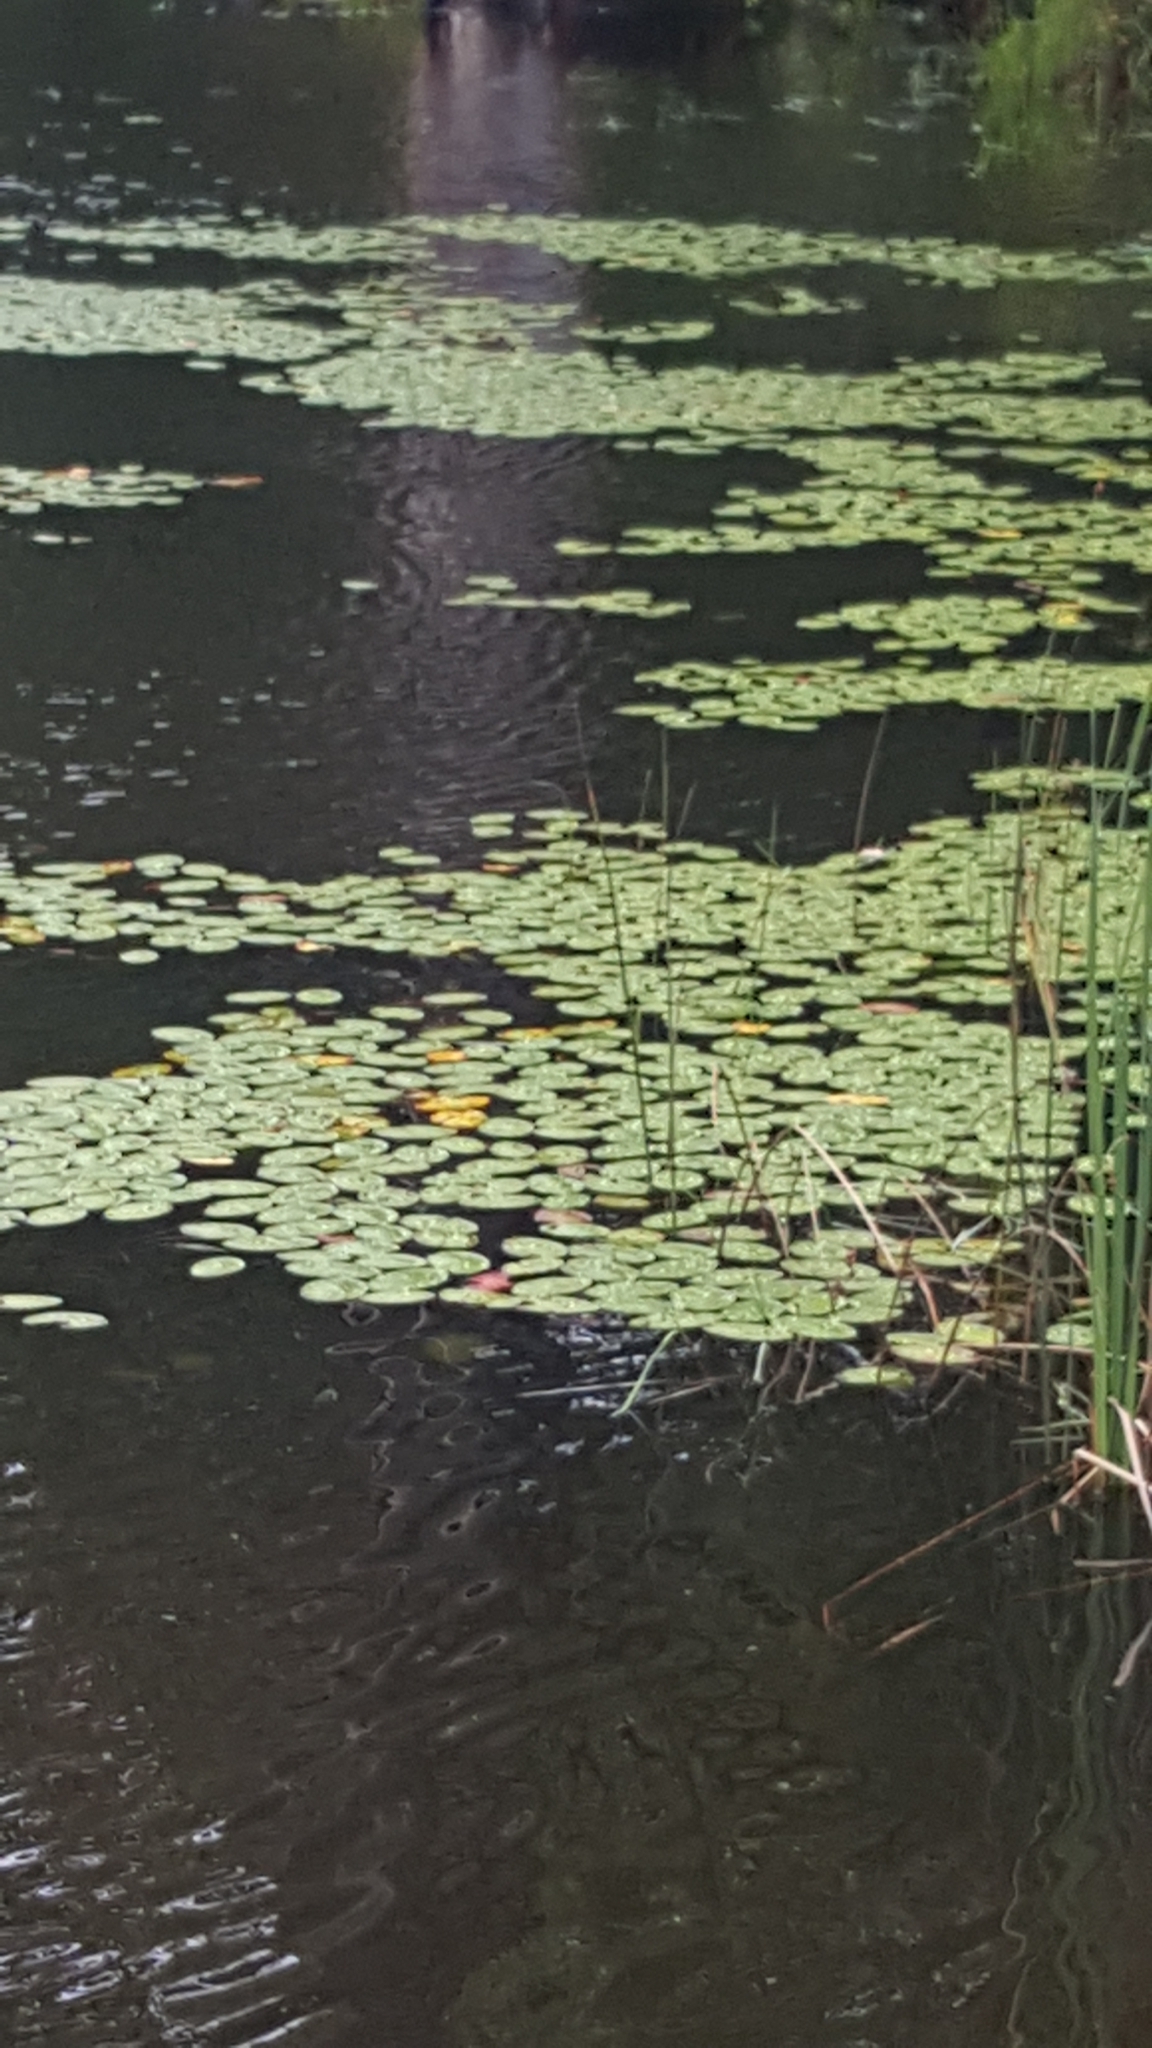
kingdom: Plantae
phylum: Tracheophyta
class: Magnoliopsida
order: Nymphaeales
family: Cabombaceae
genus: Brasenia
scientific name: Brasenia schreberi
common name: Water-shield
